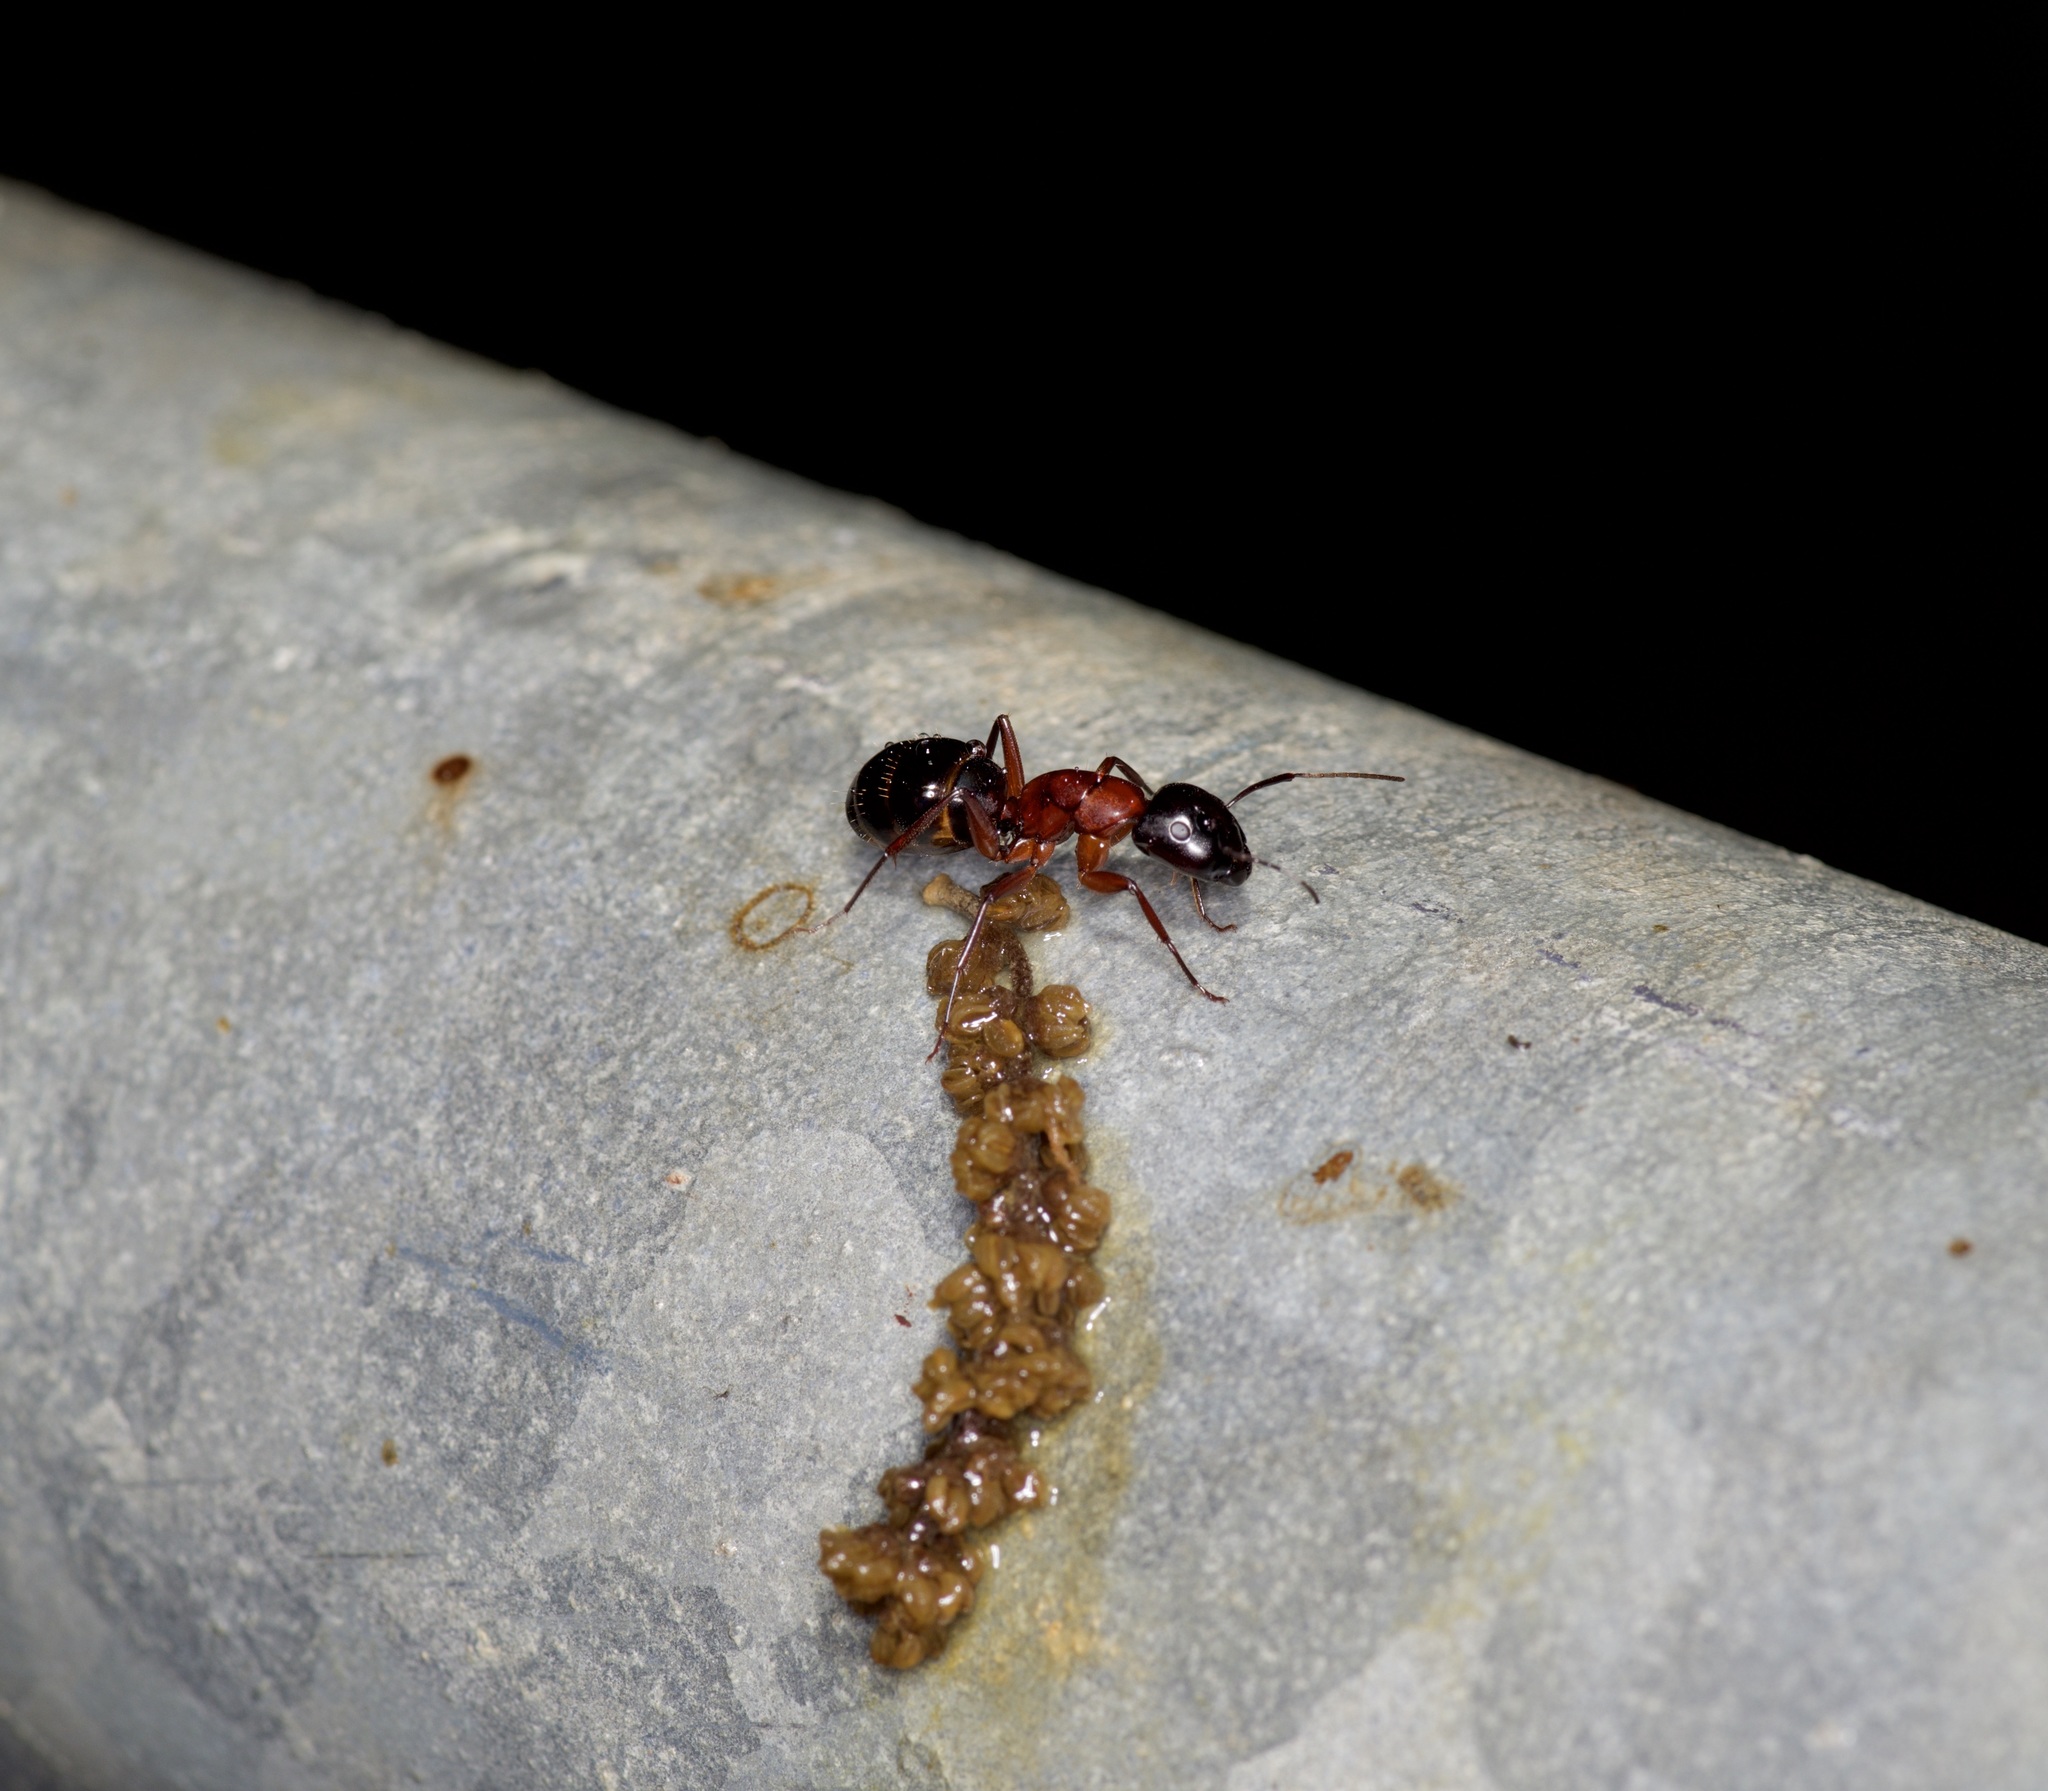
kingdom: Animalia
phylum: Arthropoda
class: Insecta
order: Hymenoptera
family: Formicidae
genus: Camponotus
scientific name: Camponotus texanus
